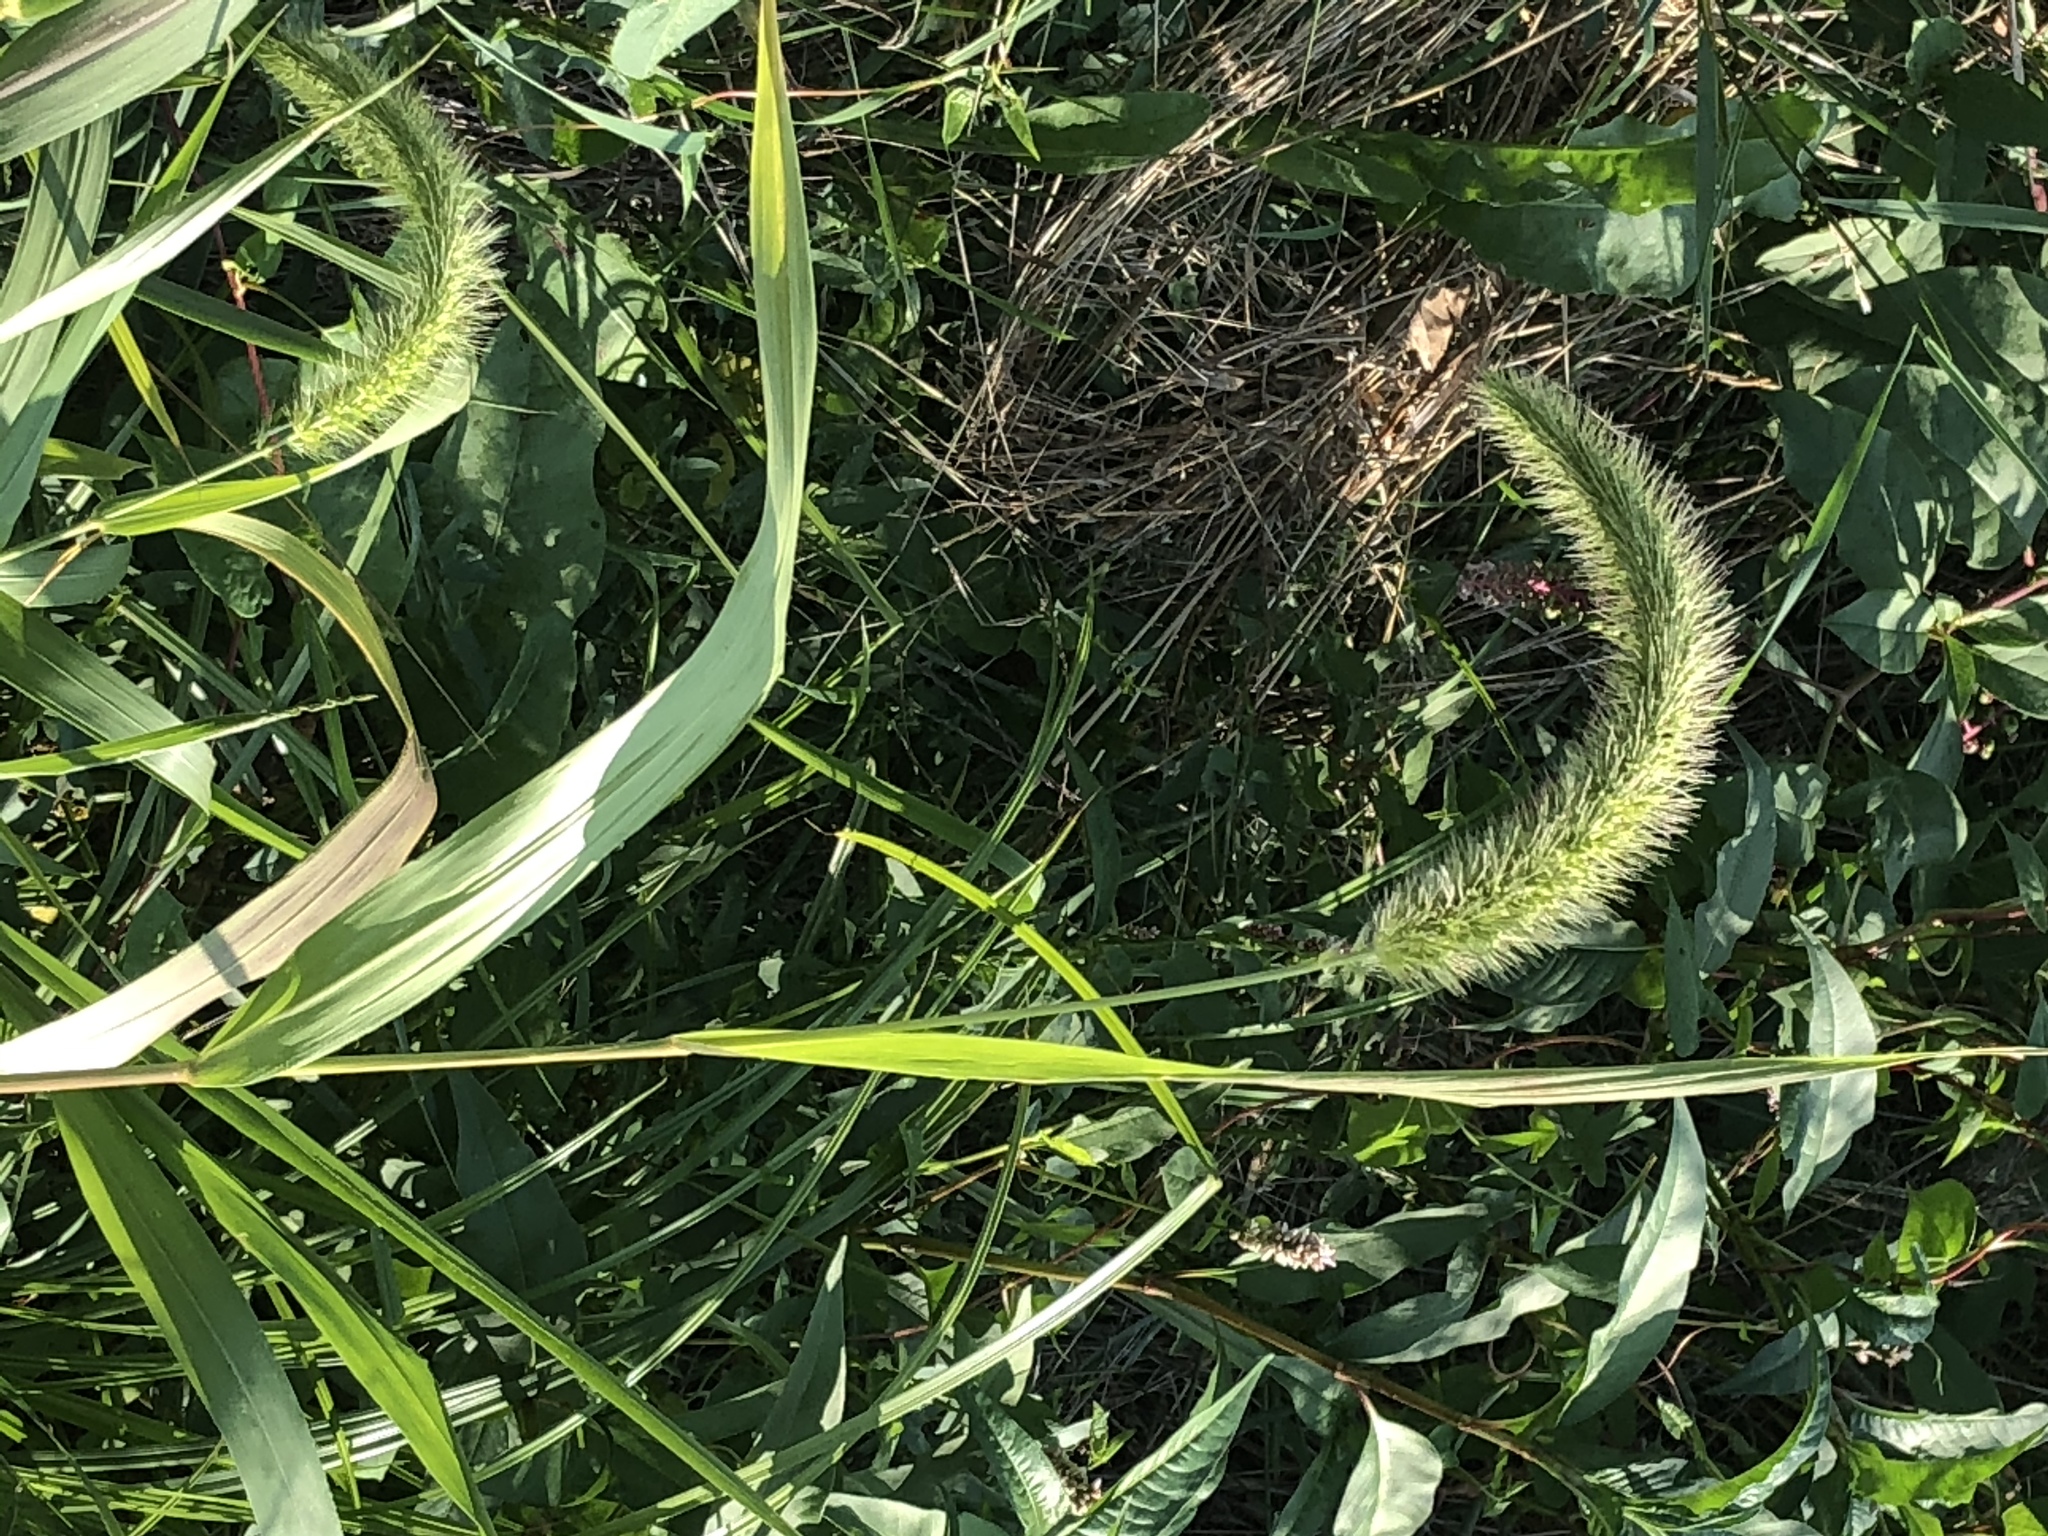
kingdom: Plantae
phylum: Tracheophyta
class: Liliopsida
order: Poales
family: Poaceae
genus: Setaria
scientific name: Setaria faberi
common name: Nodding bristle-grass
